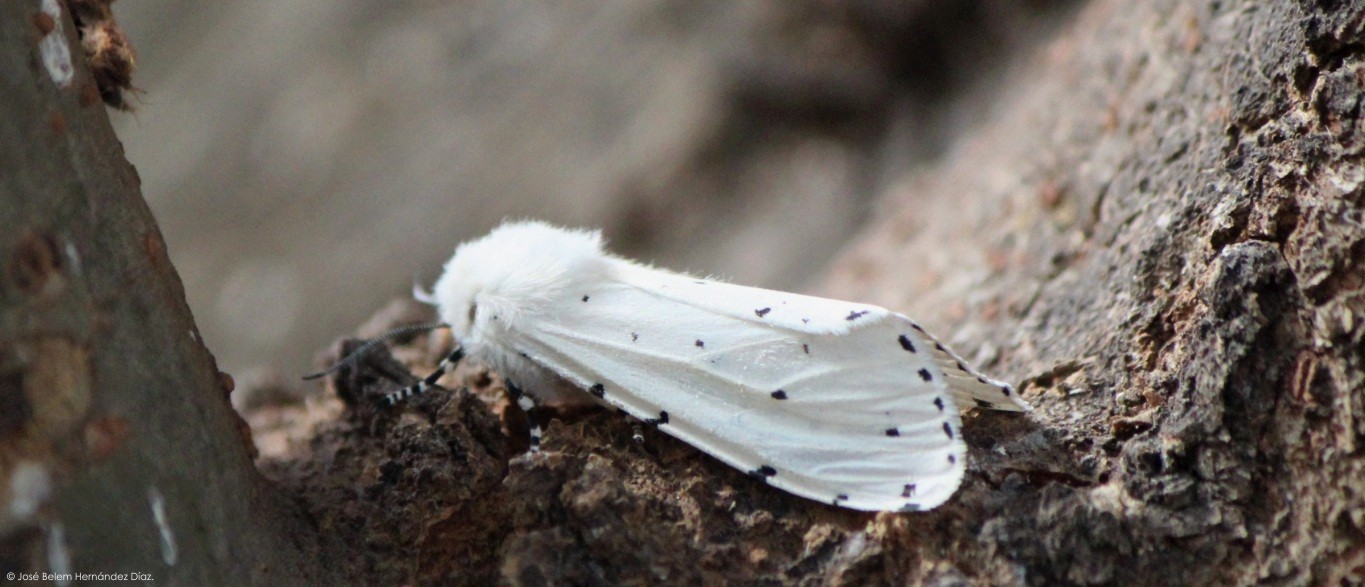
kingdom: Animalia
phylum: Arthropoda
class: Insecta
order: Lepidoptera
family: Erebidae
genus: Estigmene
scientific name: Estigmene acrea
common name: Salt marsh moth
